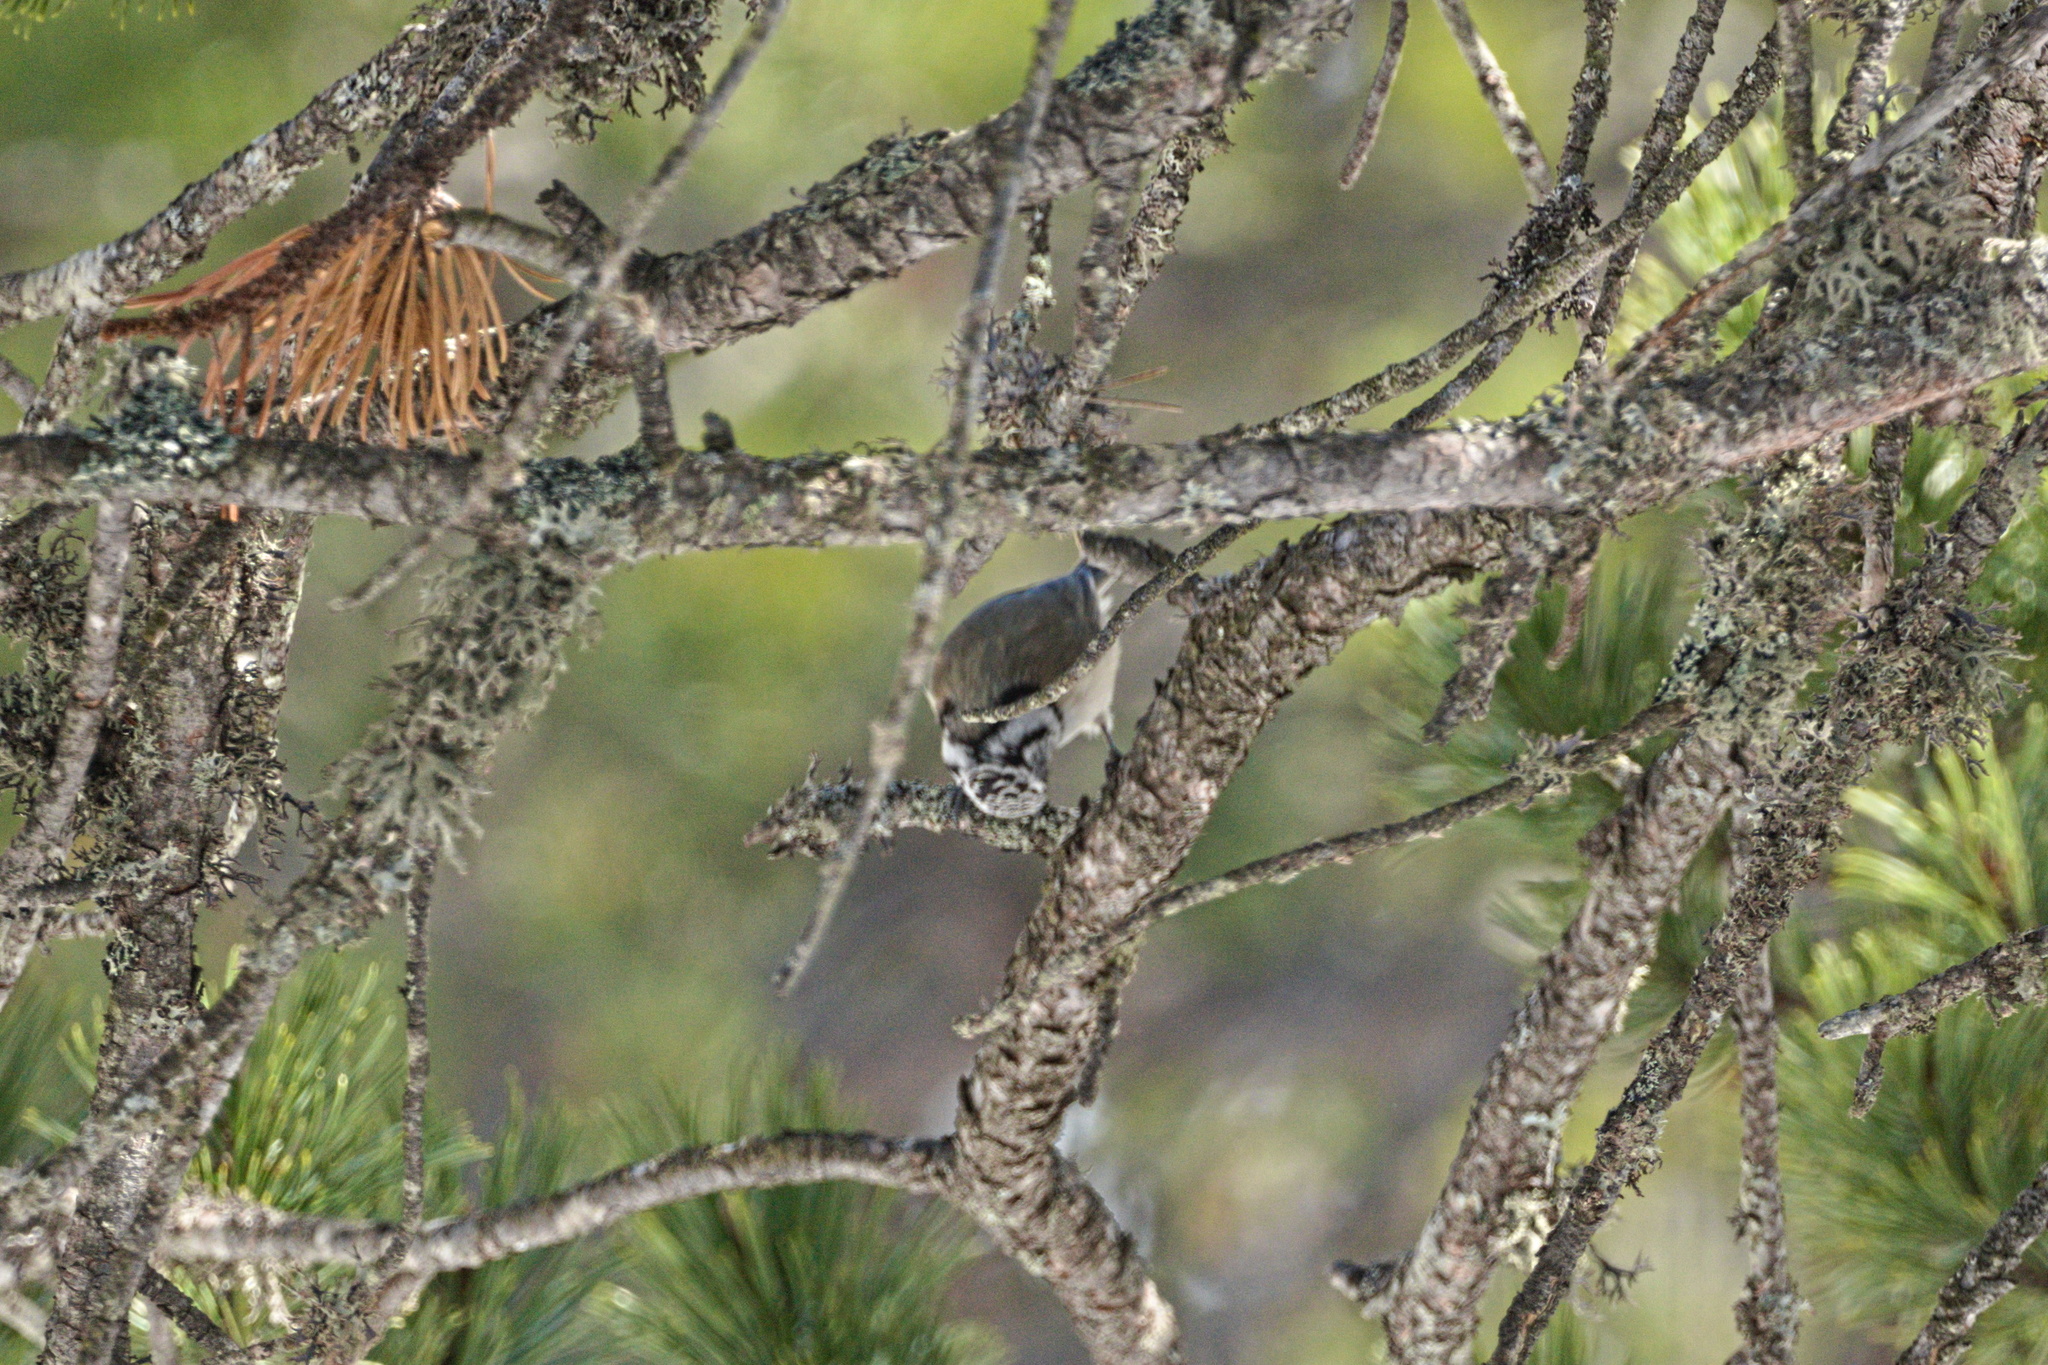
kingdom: Animalia
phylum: Chordata
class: Aves
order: Passeriformes
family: Paridae
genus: Lophophanes
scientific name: Lophophanes cristatus
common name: European crested tit
